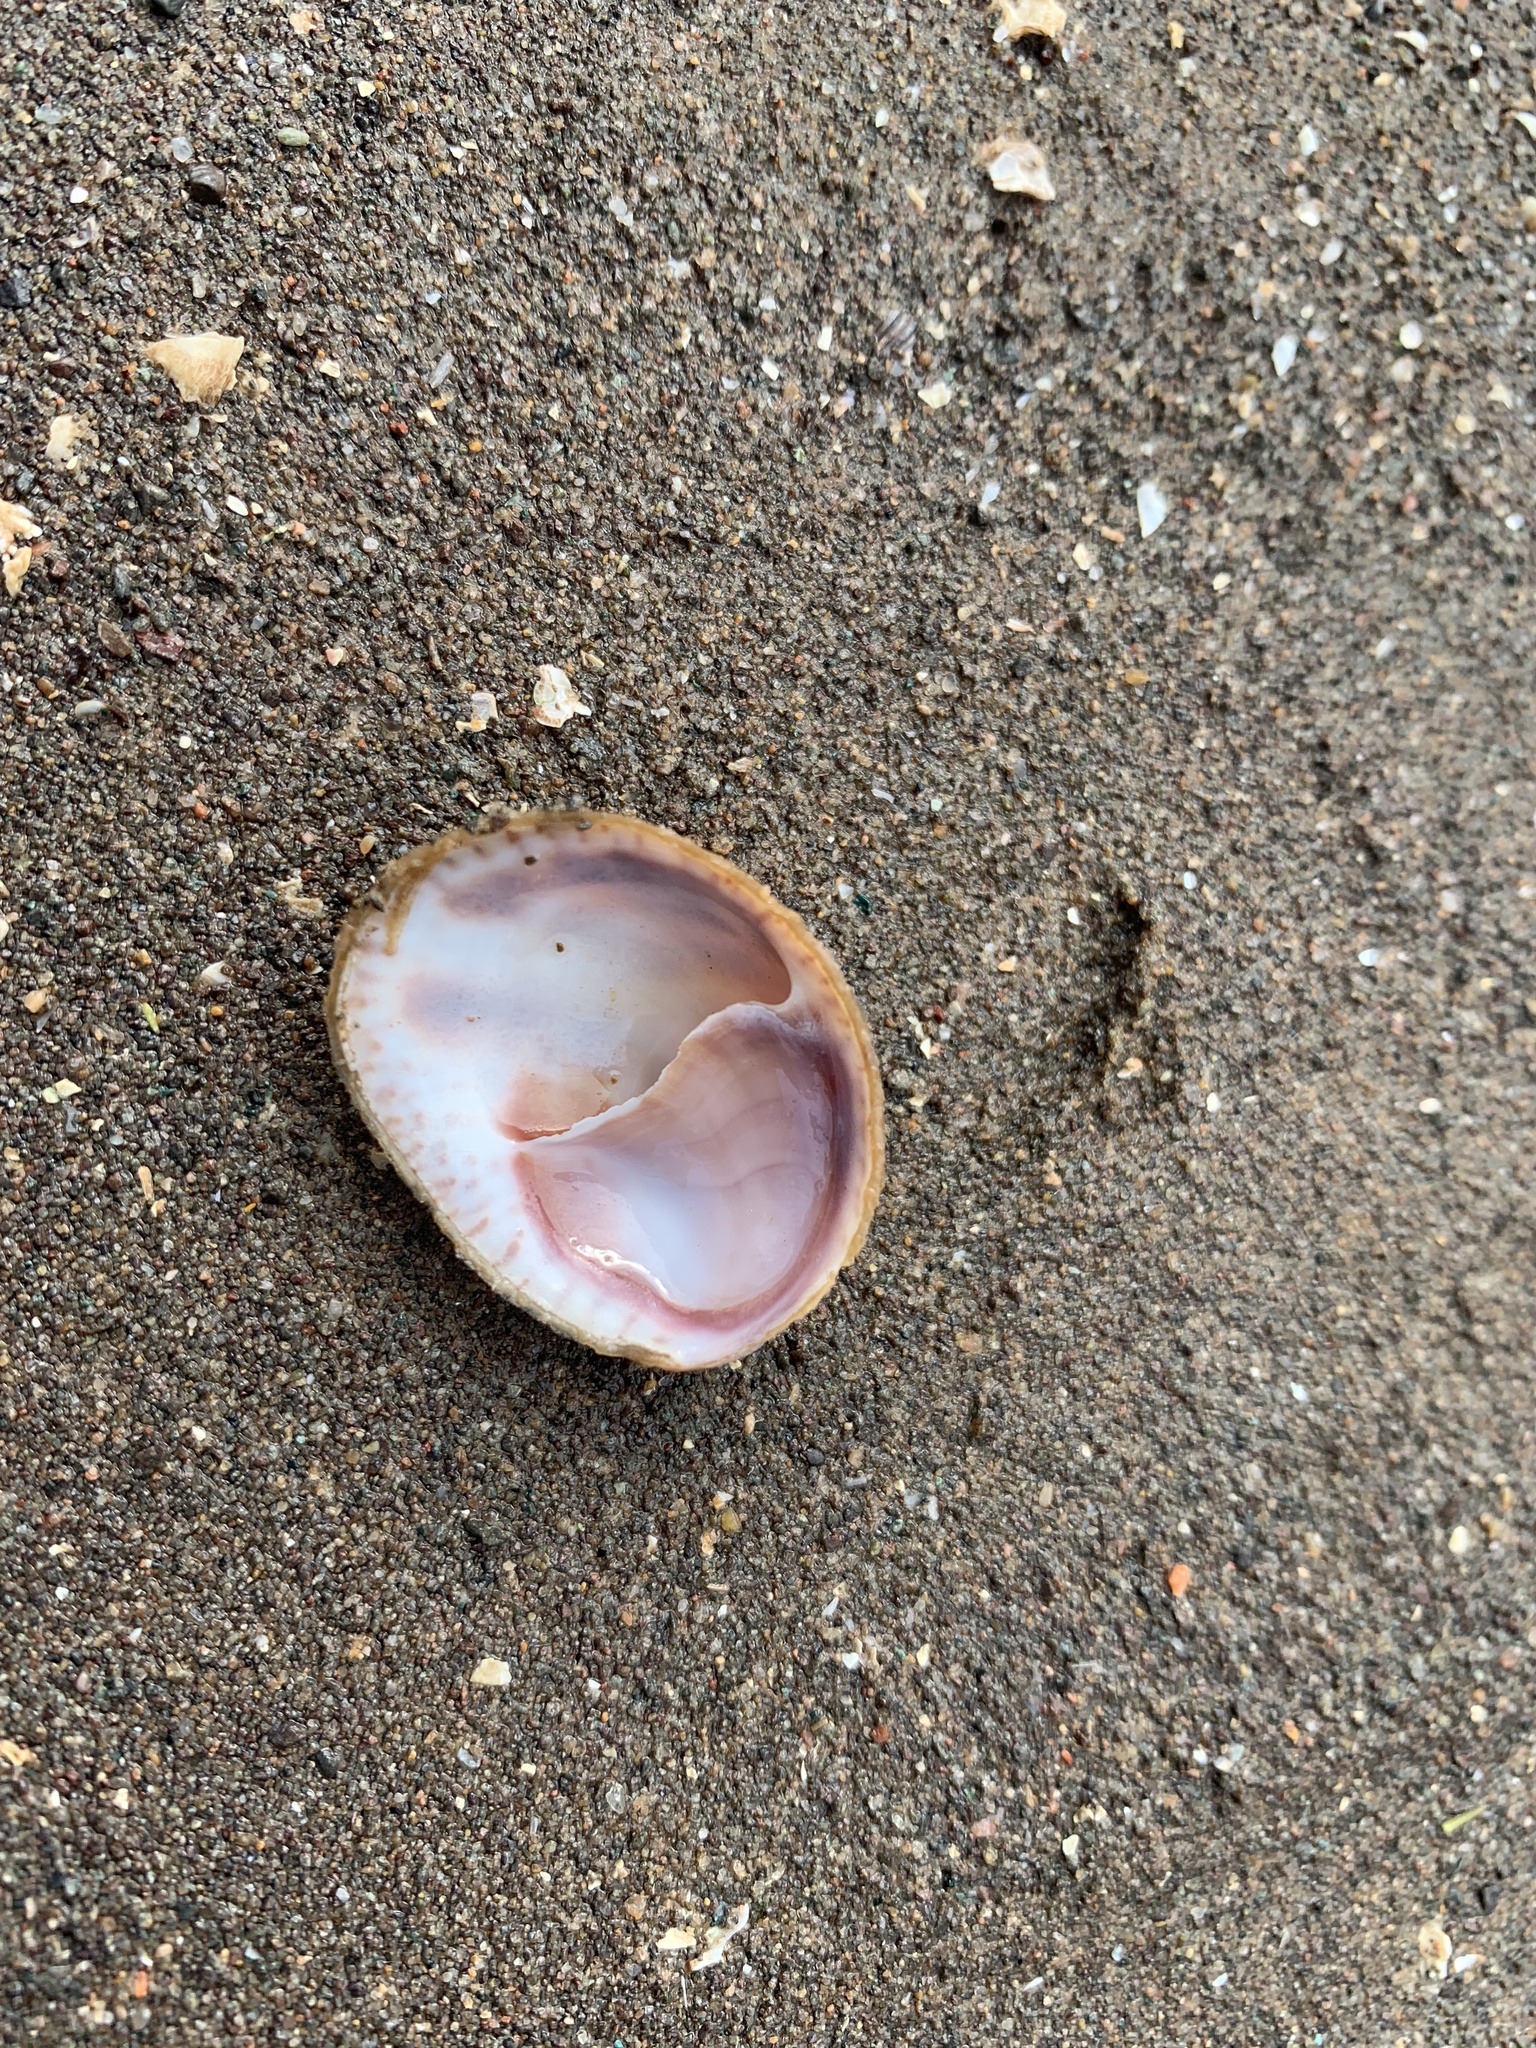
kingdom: Animalia
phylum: Mollusca
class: Gastropoda
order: Littorinimorpha
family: Calyptraeidae
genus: Crepidula
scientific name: Crepidula fornicata
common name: Slipper limpet
